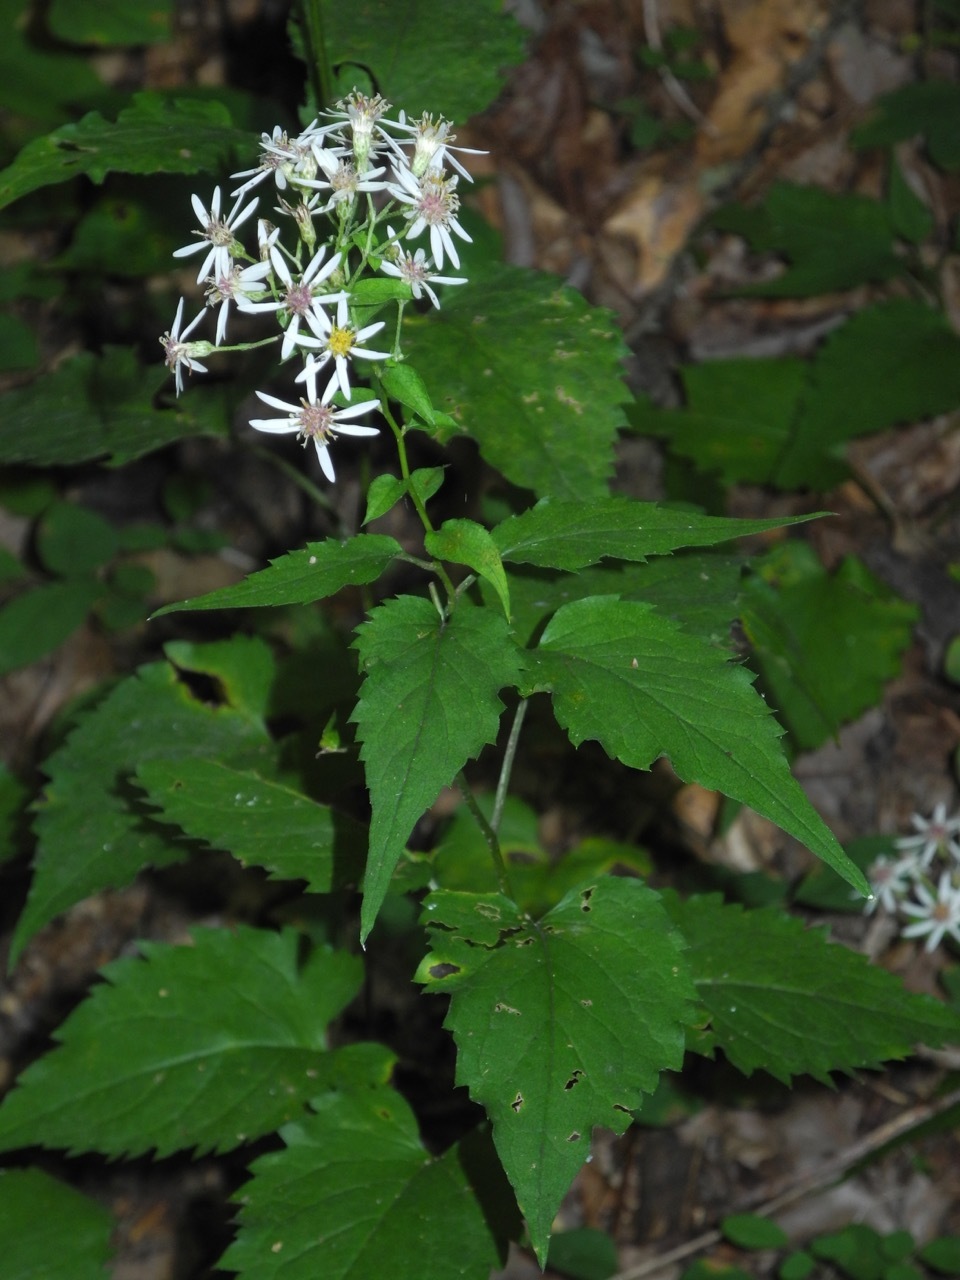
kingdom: Plantae
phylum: Tracheophyta
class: Magnoliopsida
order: Asterales
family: Asteraceae
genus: Eurybia
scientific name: Eurybia divaricata
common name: White wood aster
